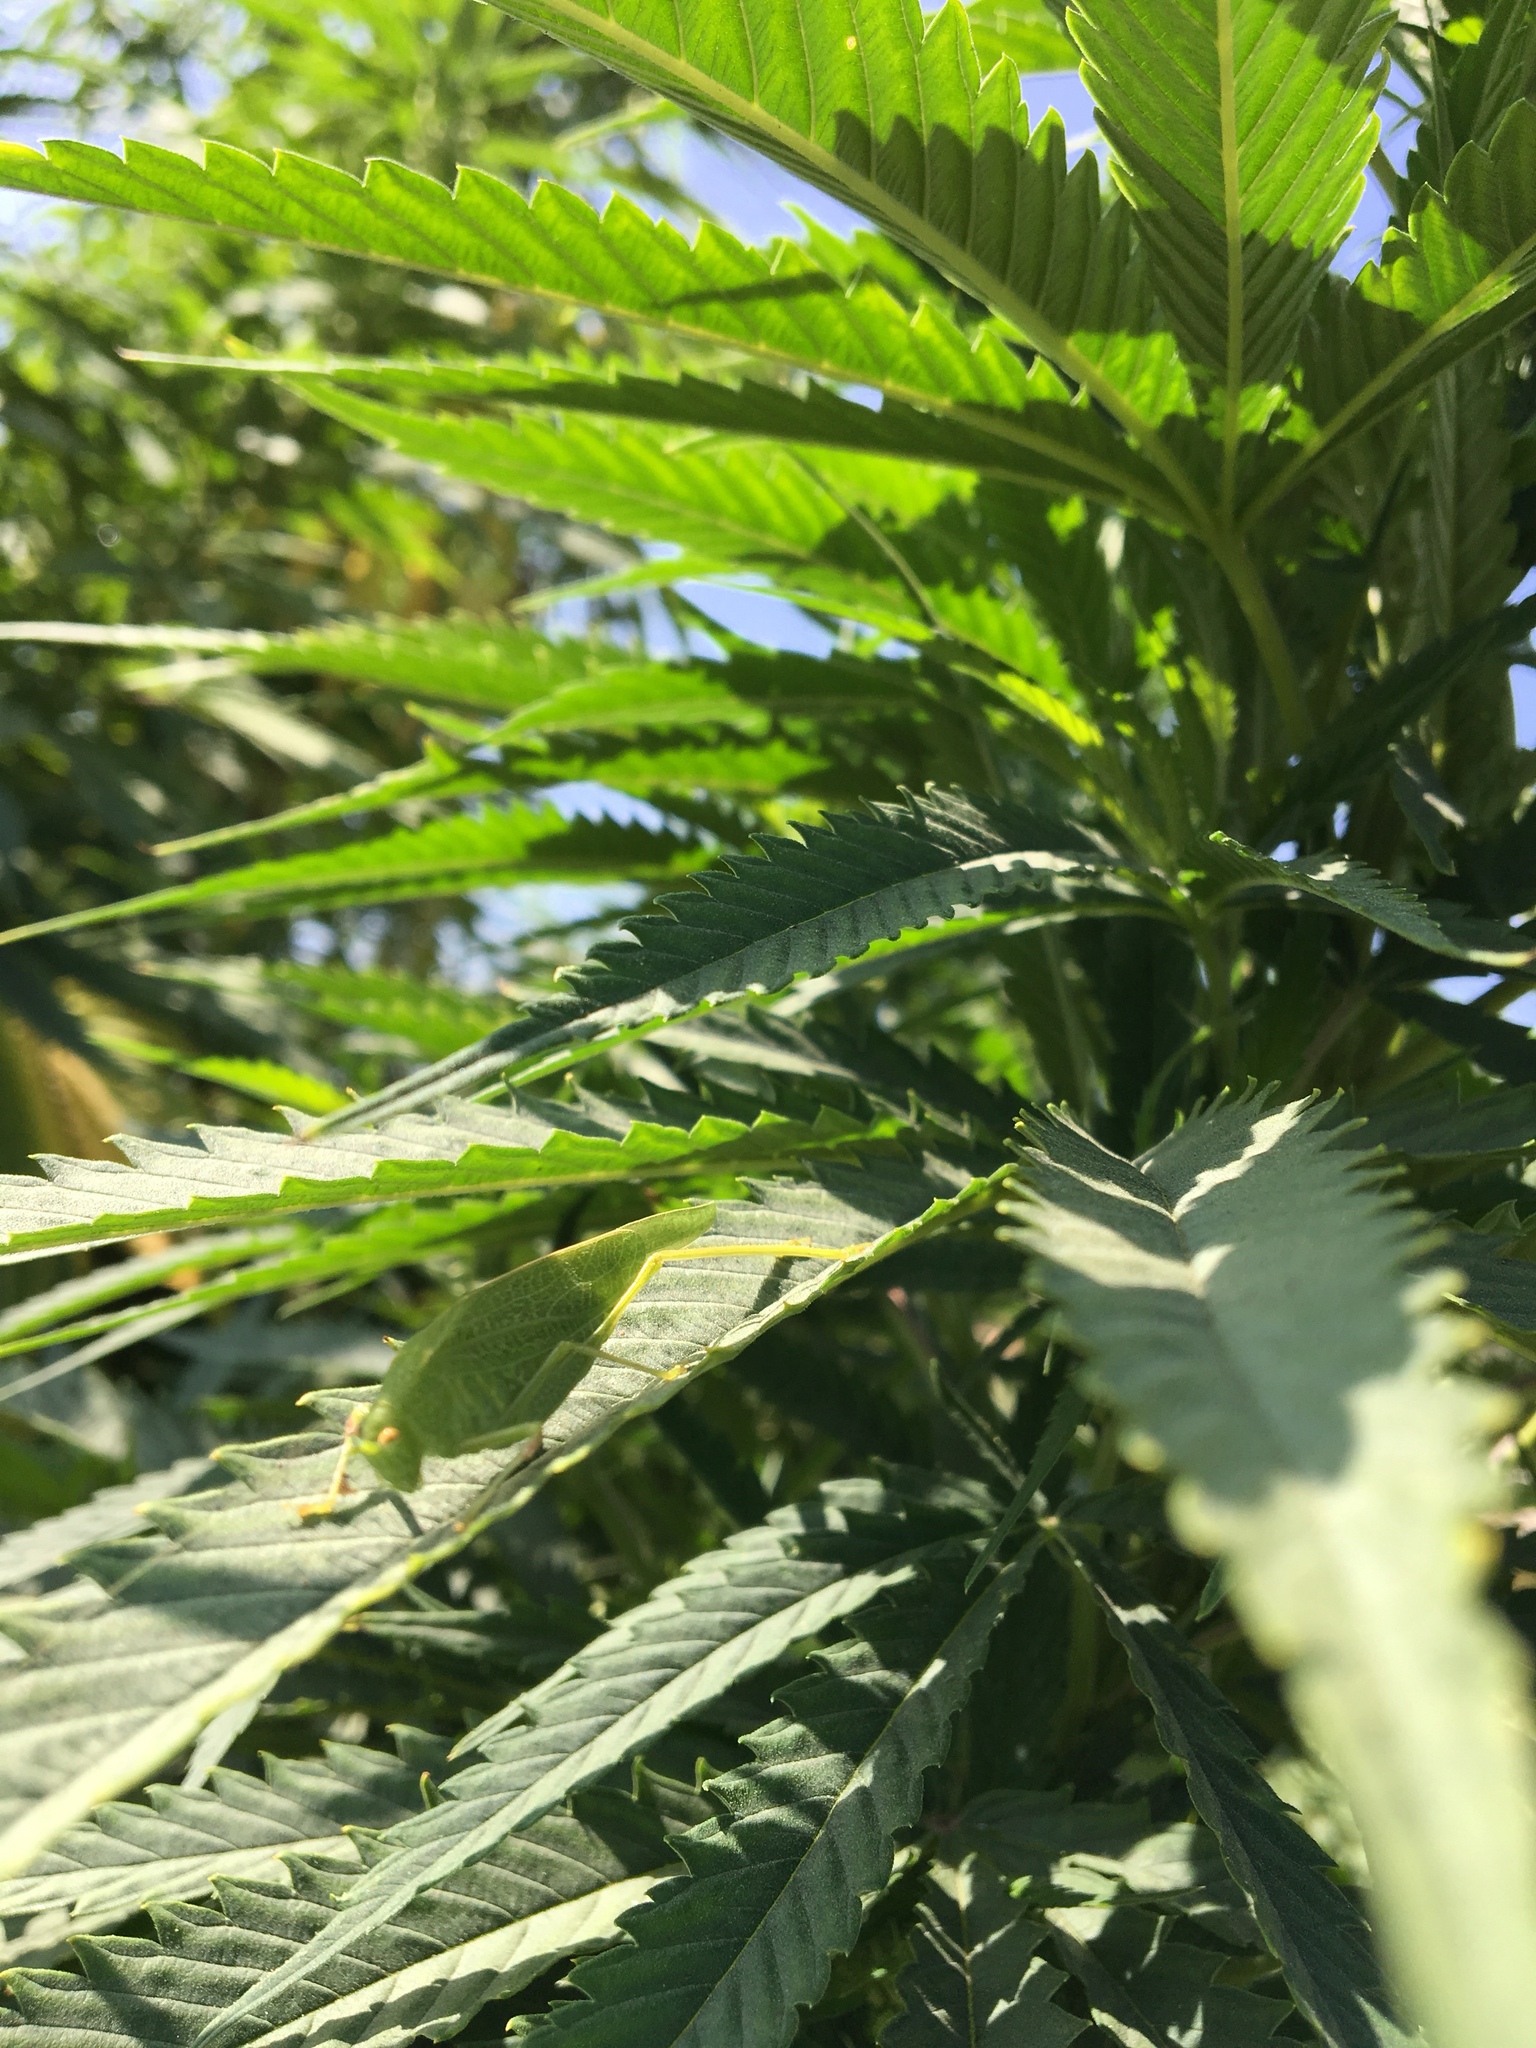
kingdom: Animalia
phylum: Arthropoda
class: Insecta
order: Orthoptera
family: Tettigoniidae
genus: Phaneroptera
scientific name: Phaneroptera nana
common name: Southern sickle bush-cricket
